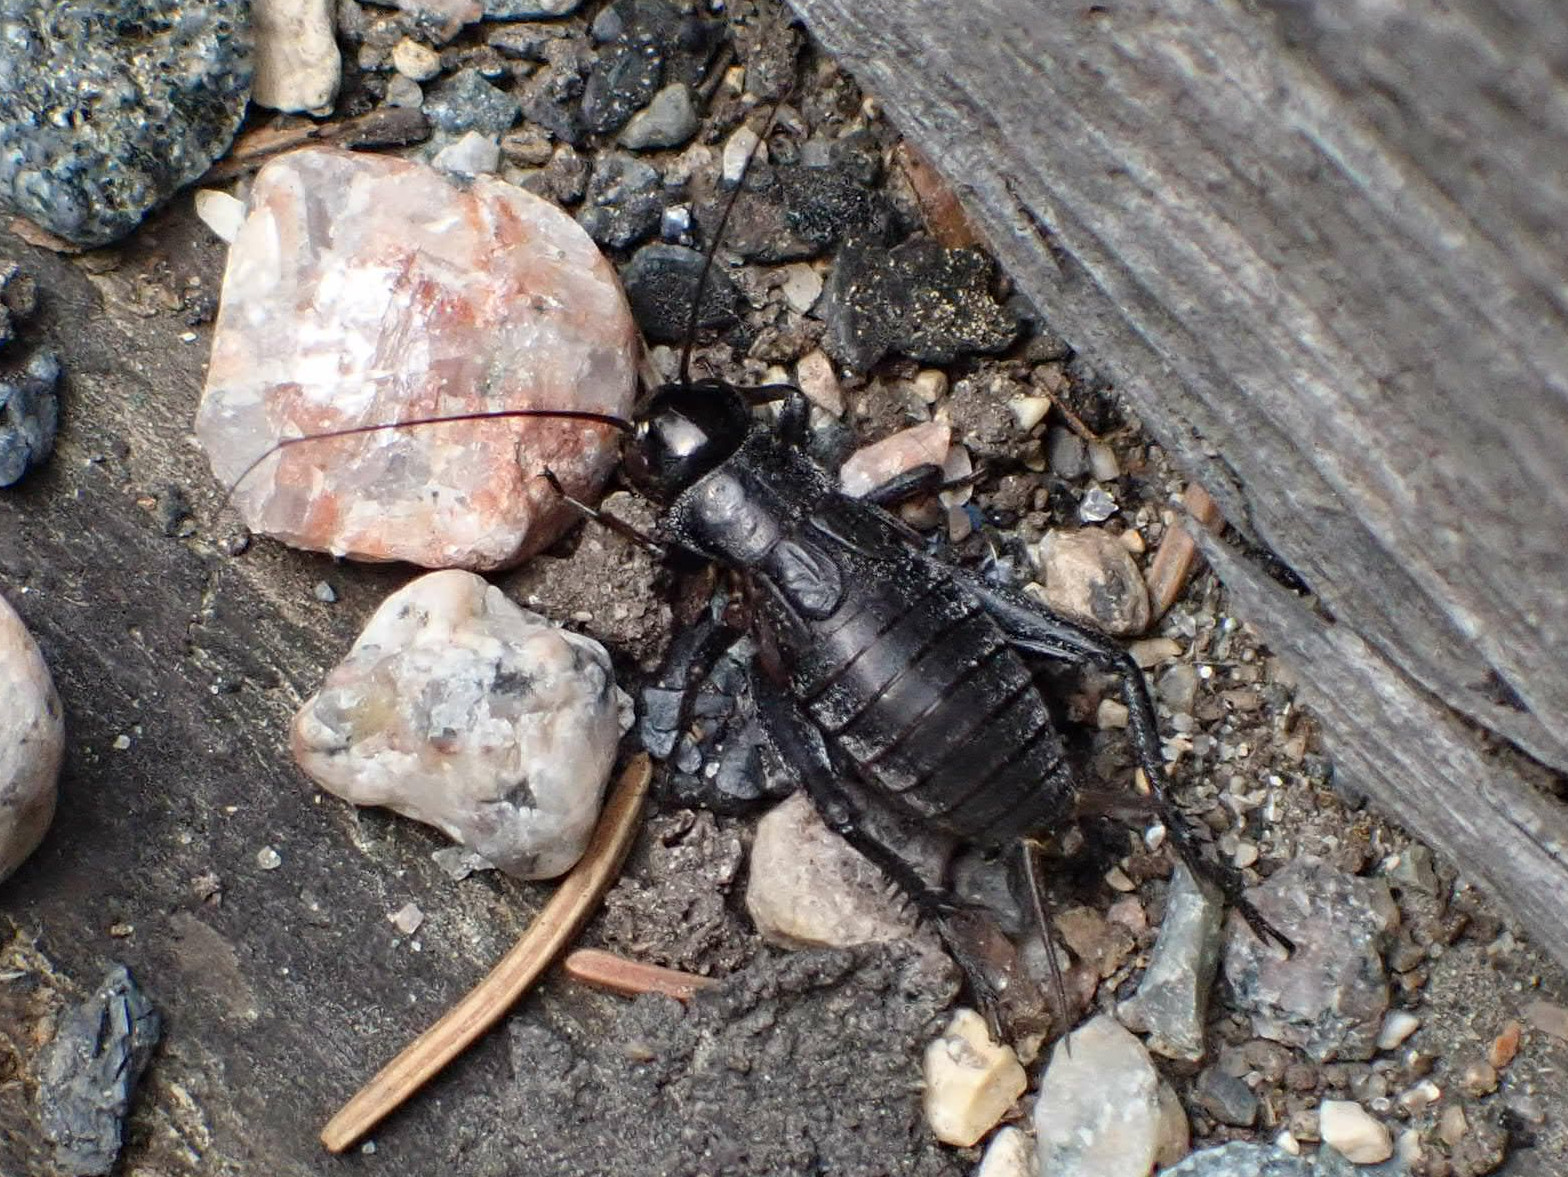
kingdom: Animalia
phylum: Arthropoda
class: Insecta
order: Orthoptera
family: Gryllidae
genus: Gryllus
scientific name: Gryllus pennsylvanicus
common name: Fall field cricket
